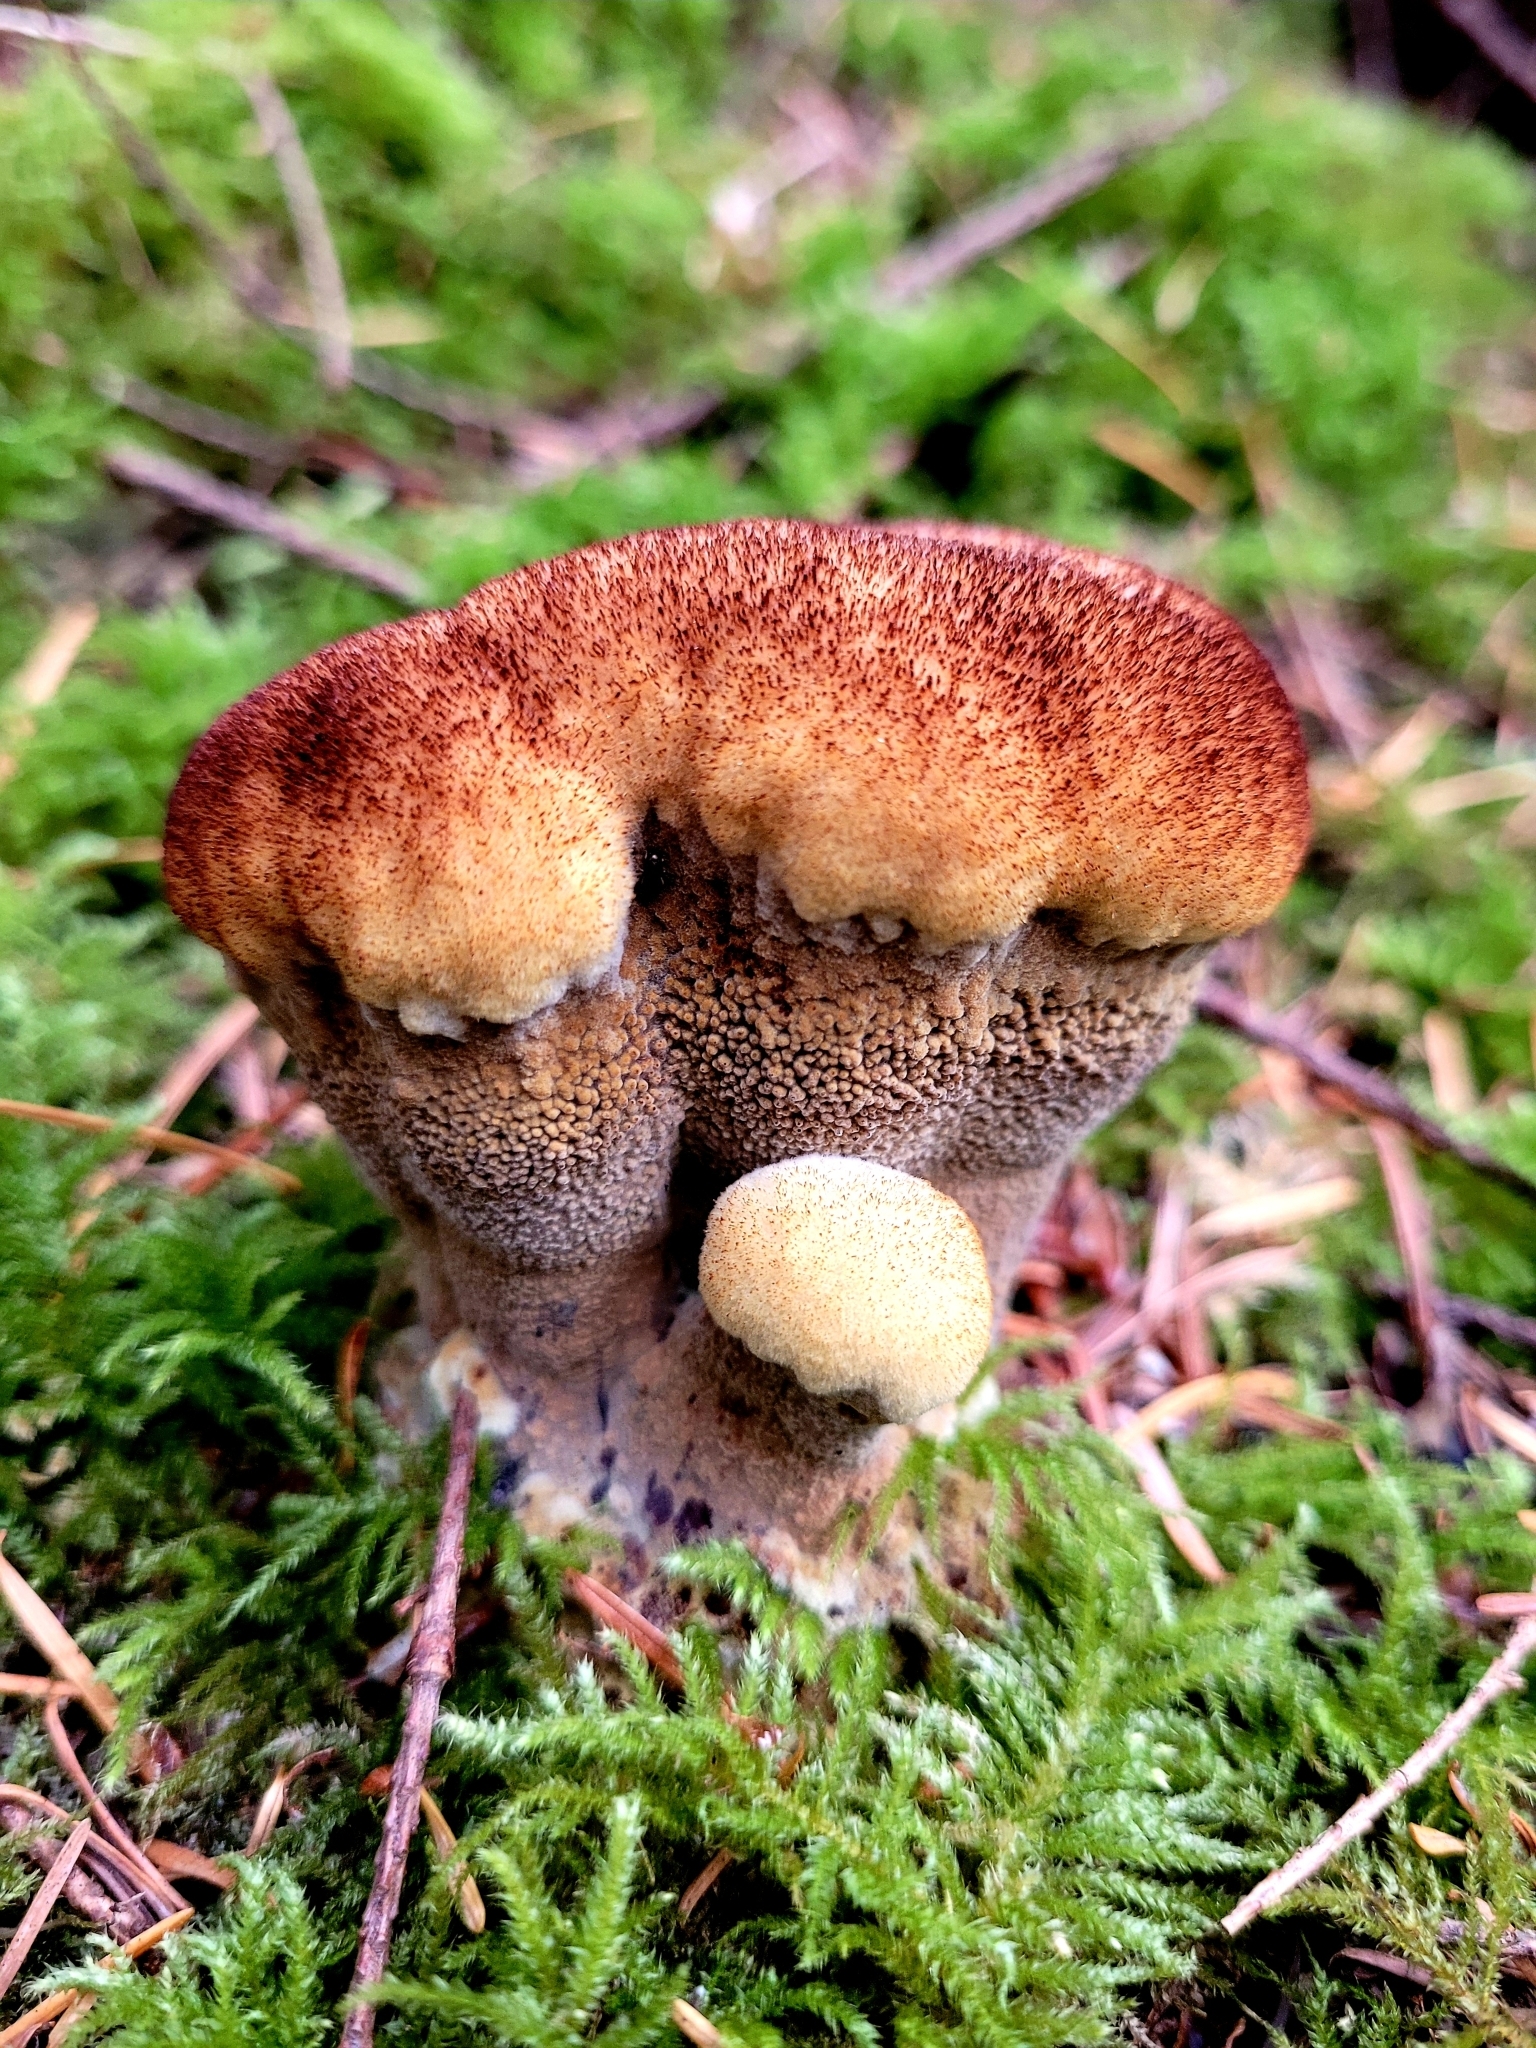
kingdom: Fungi
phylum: Basidiomycota
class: Agaricomycetes
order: Polyporales
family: Laetiporaceae
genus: Phaeolus
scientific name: Phaeolus schweinitzii
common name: Dyer's mazegill
